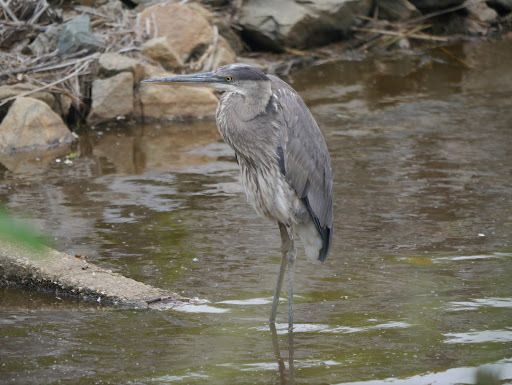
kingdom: Animalia
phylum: Chordata
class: Aves
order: Pelecaniformes
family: Ardeidae
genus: Ardea
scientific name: Ardea herodias
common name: Great blue heron
